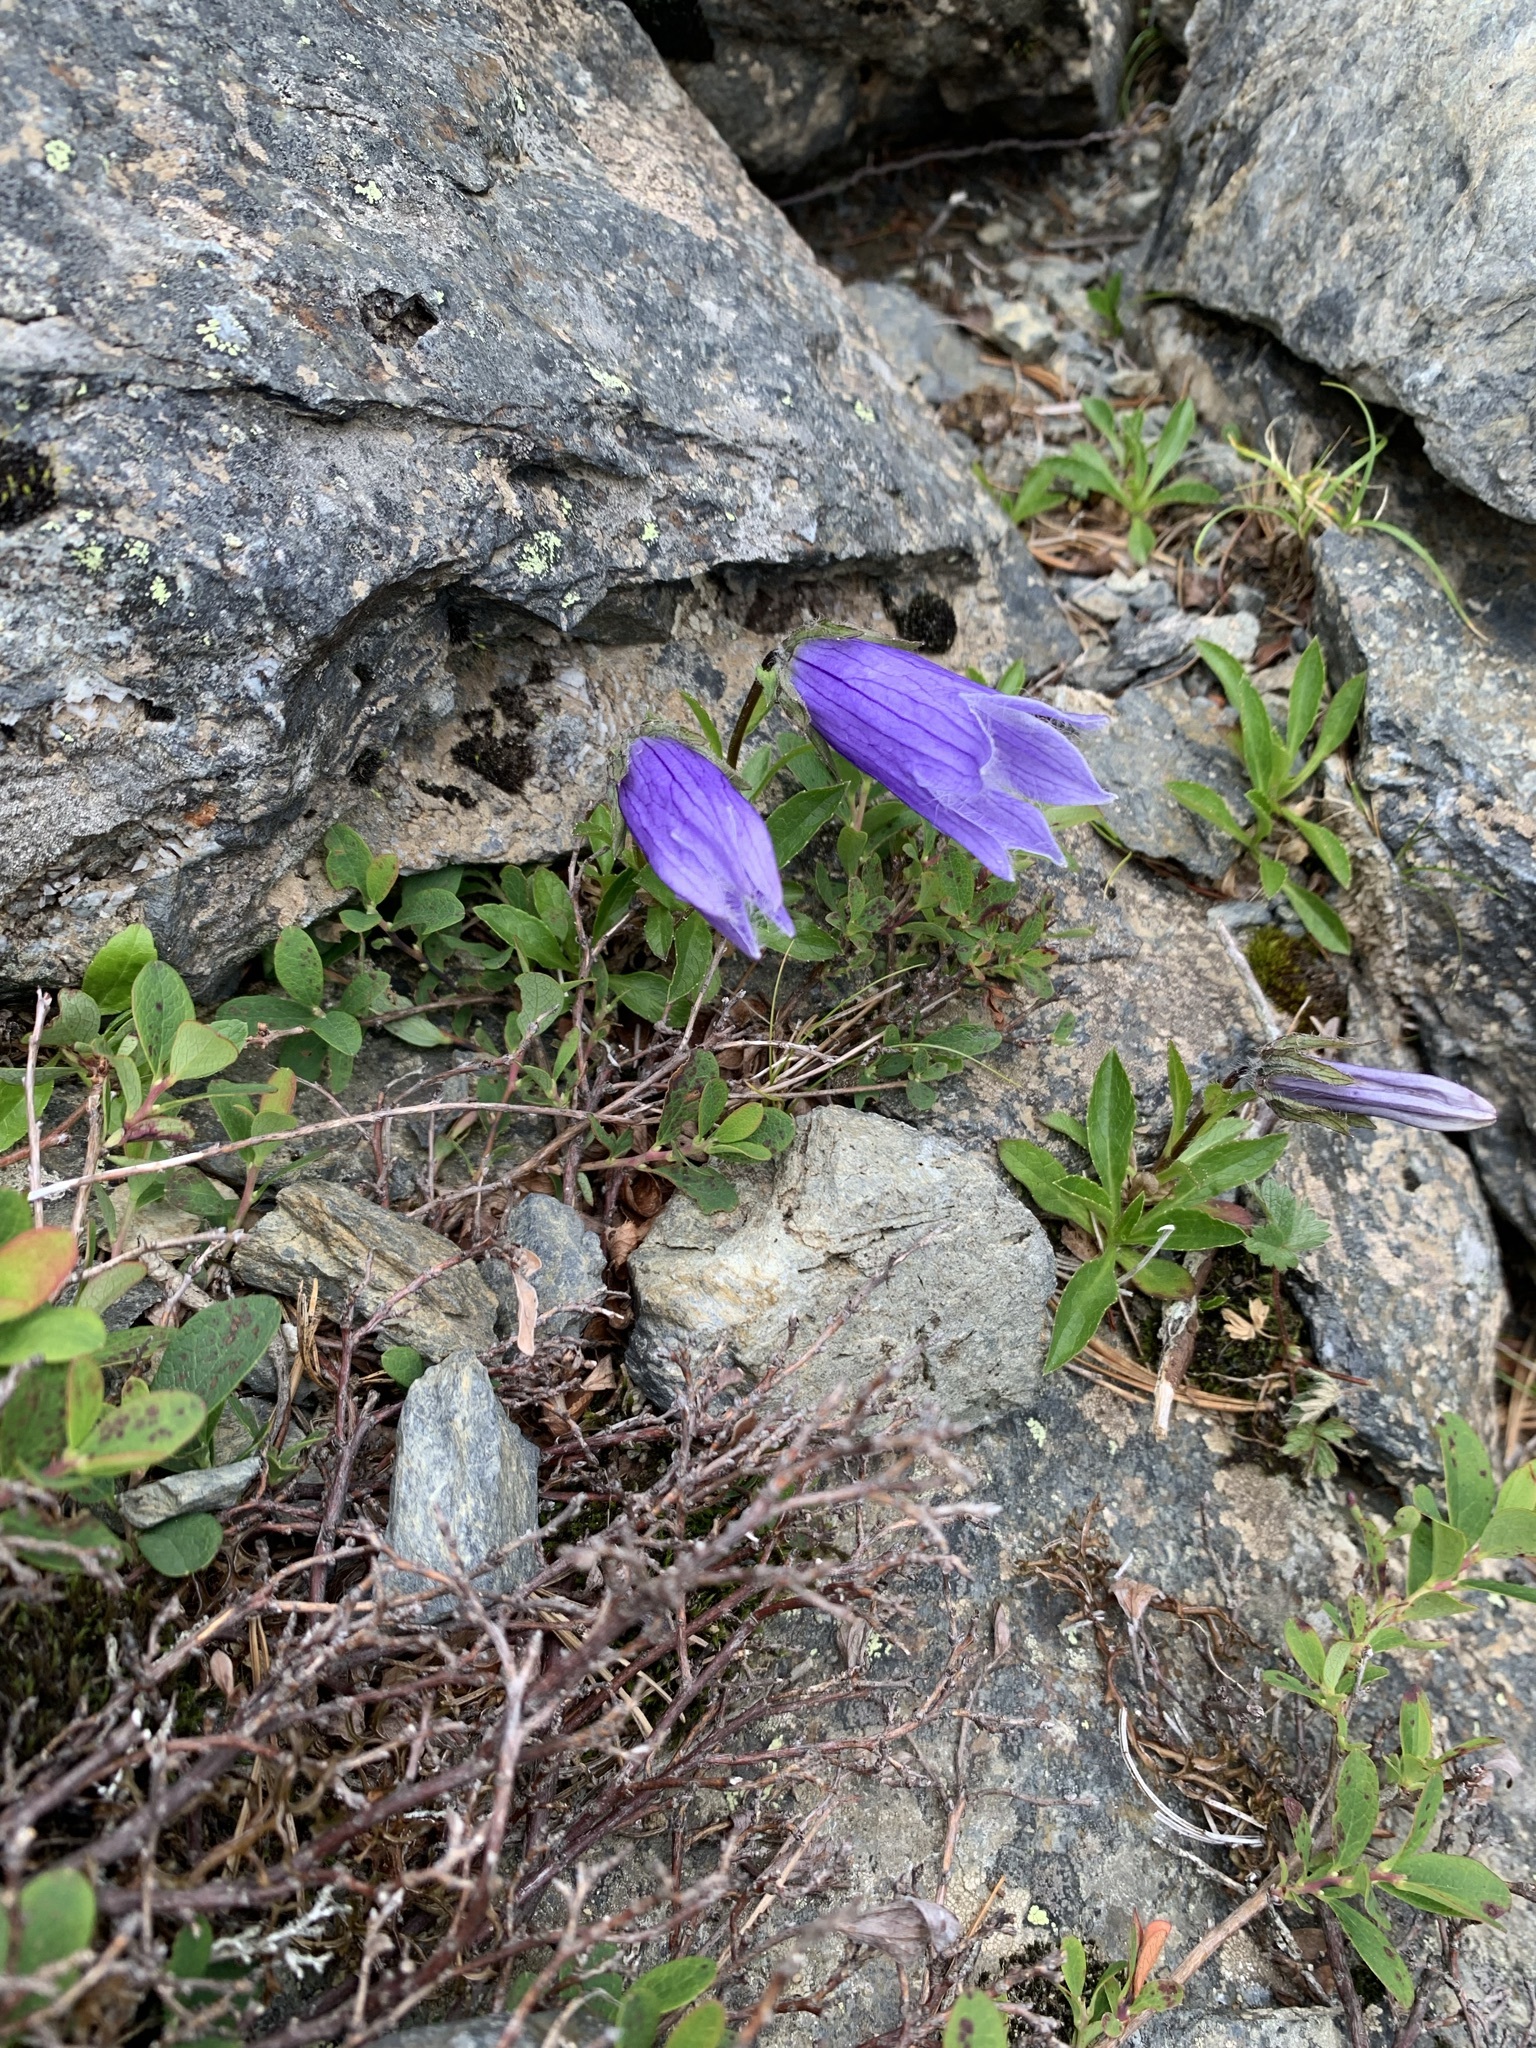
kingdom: Plantae
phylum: Tracheophyta
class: Magnoliopsida
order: Asterales
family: Campanulaceae
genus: Campanula
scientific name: Campanula dasyantha
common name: Hairyflower bellflower
